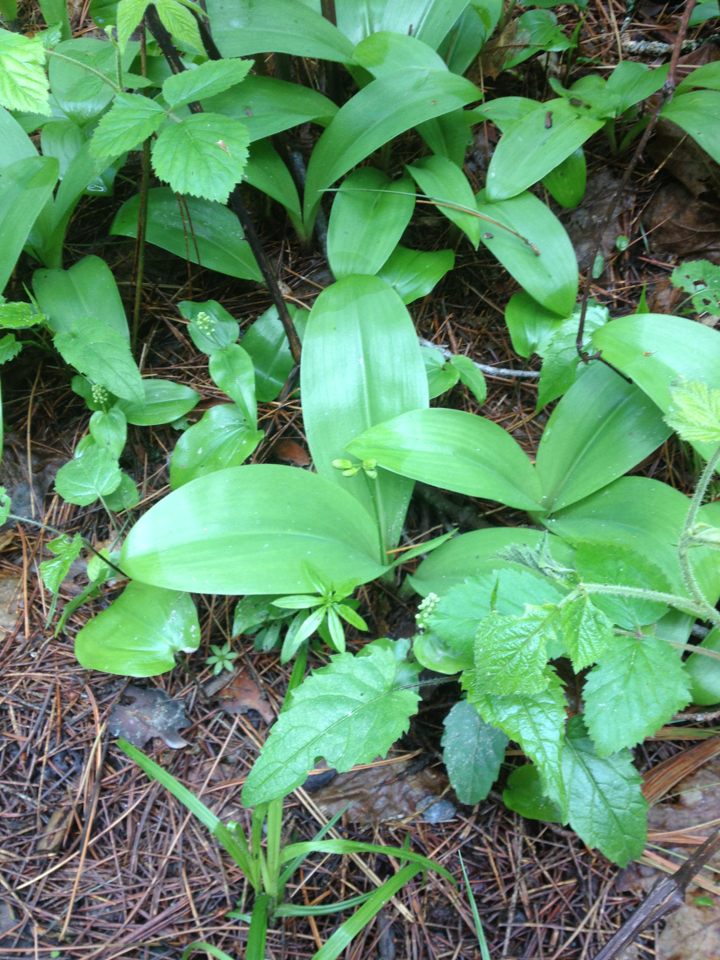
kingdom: Plantae
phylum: Tracheophyta
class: Liliopsida
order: Liliales
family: Liliaceae
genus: Clintonia
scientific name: Clintonia borealis
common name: Yellow clintonia
